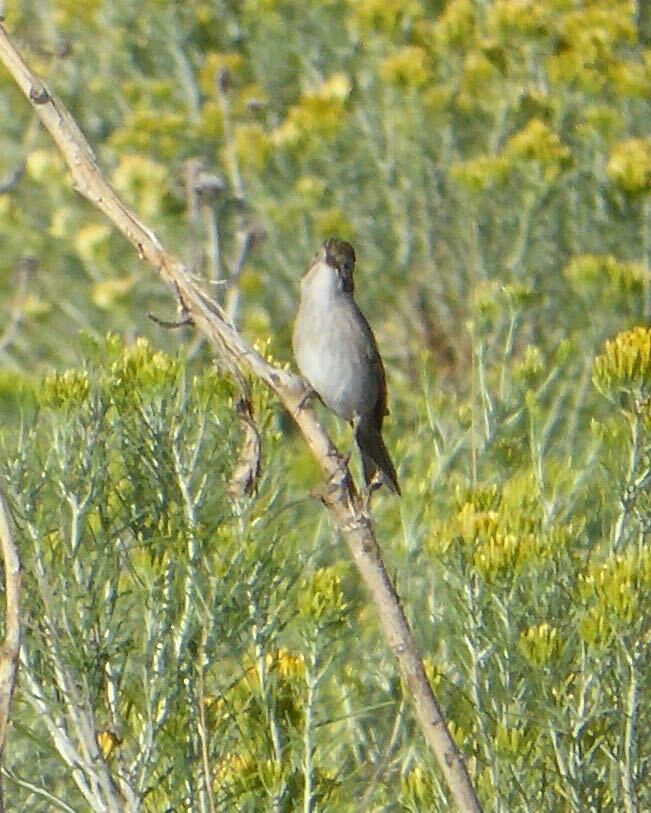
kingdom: Animalia
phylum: Chordata
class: Aves
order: Passeriformes
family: Passerellidae
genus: Spizella
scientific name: Spizella breweri
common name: Brewer's sparrow
